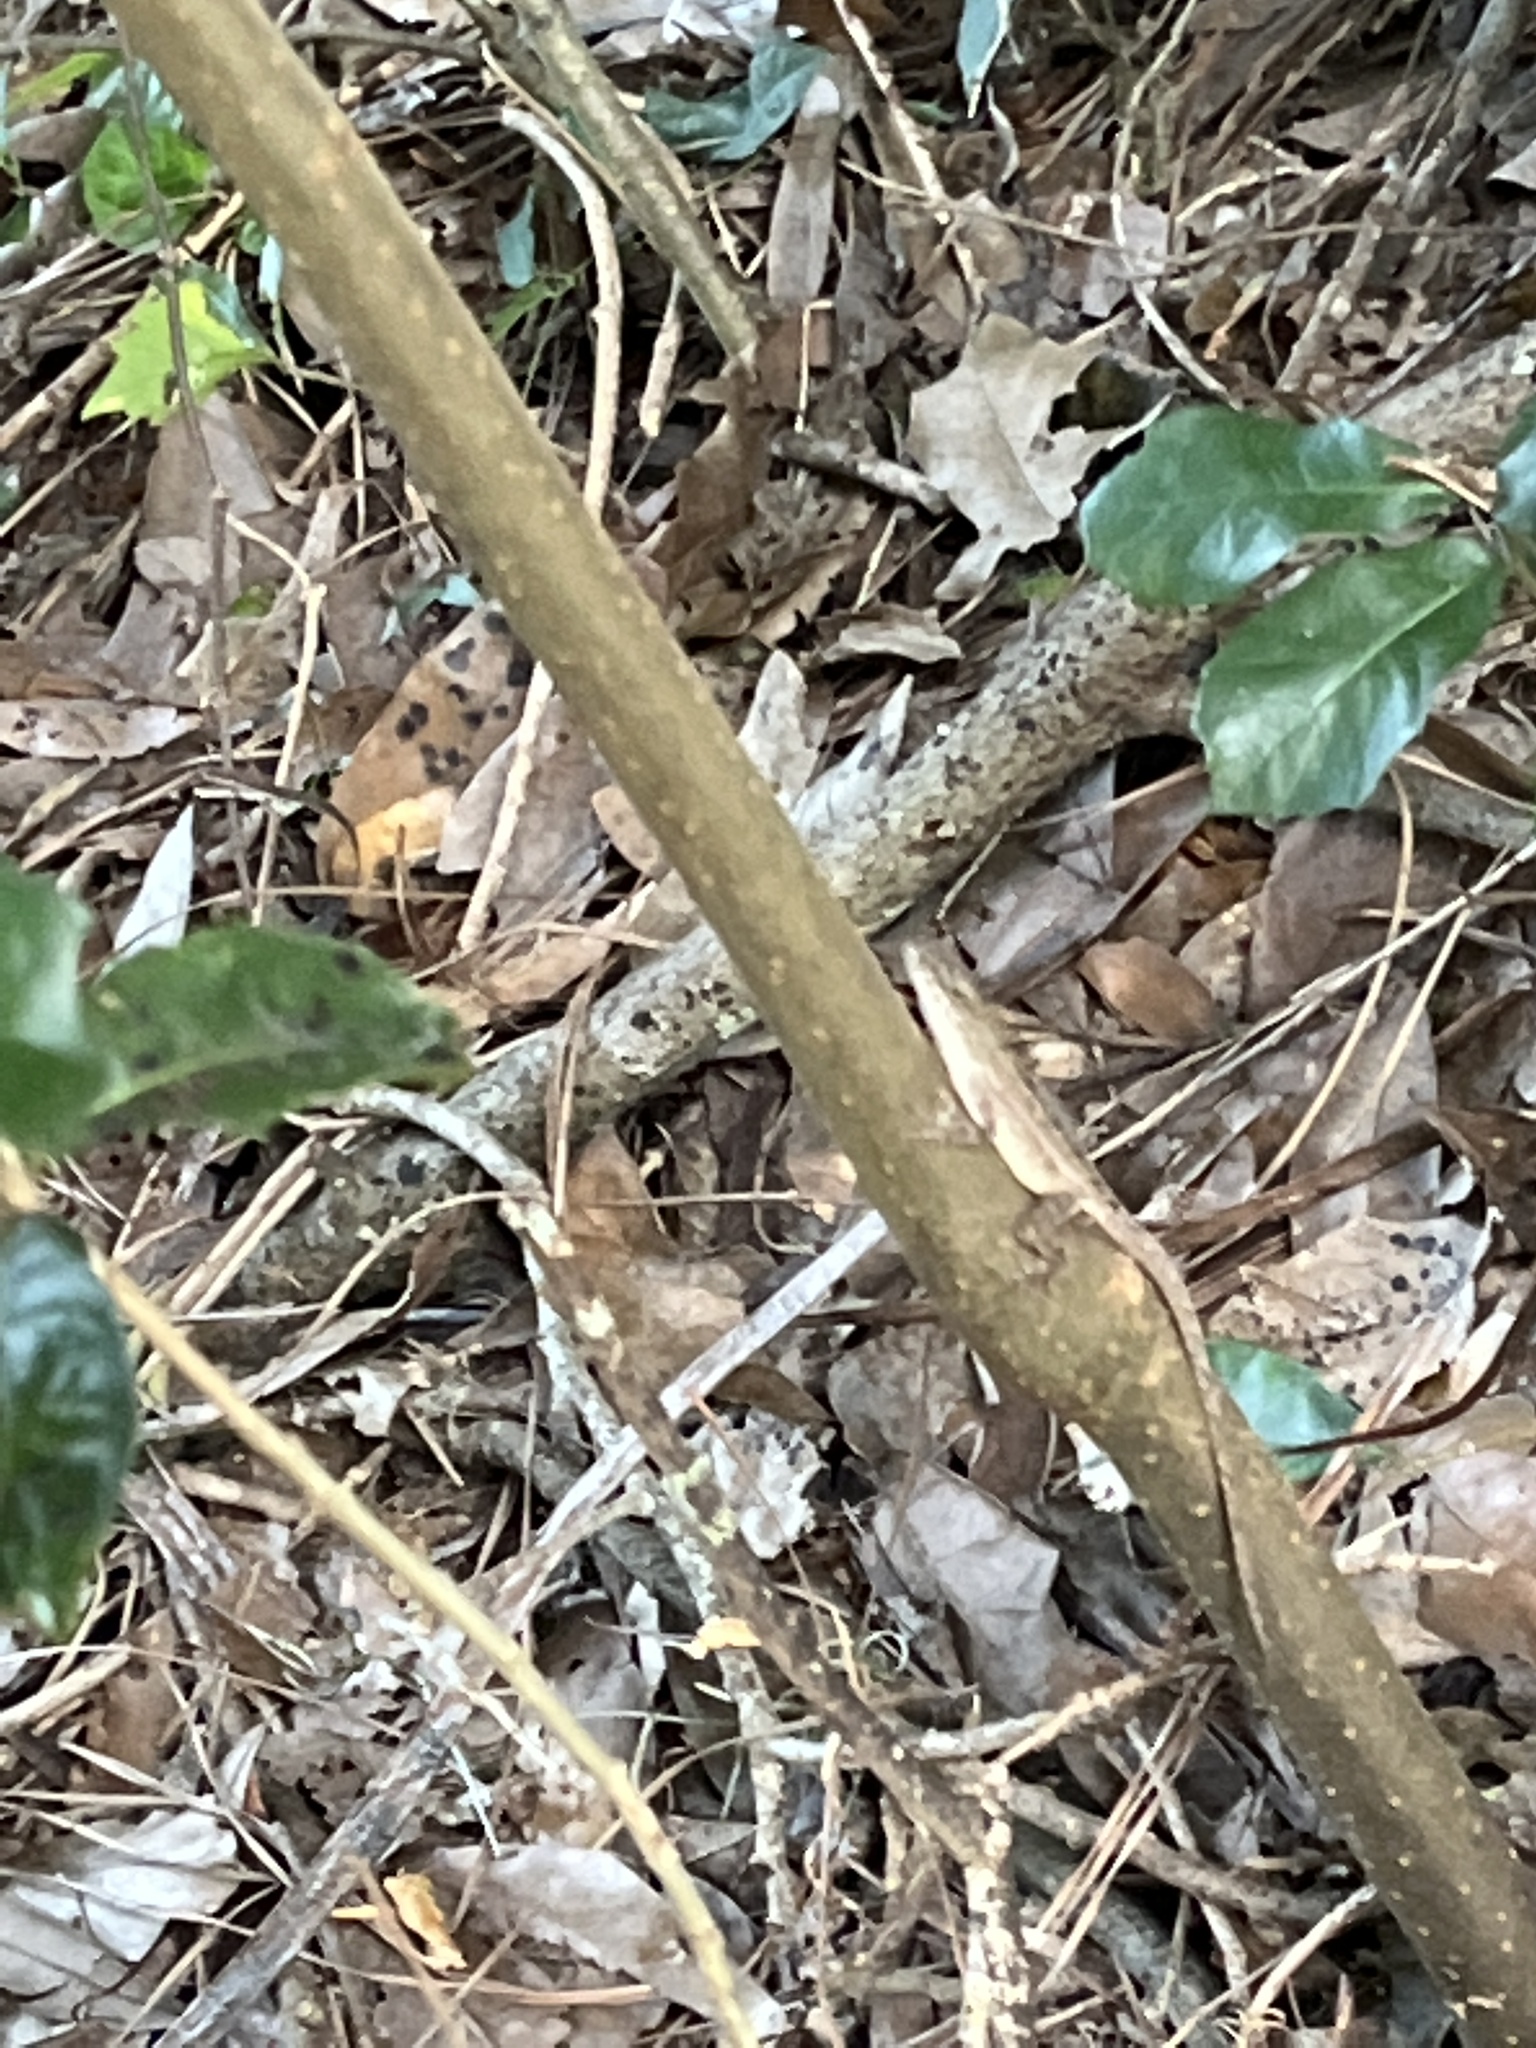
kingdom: Animalia
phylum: Chordata
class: Squamata
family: Dactyloidae
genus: Anolis
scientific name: Anolis sagrei
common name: Brown anole
